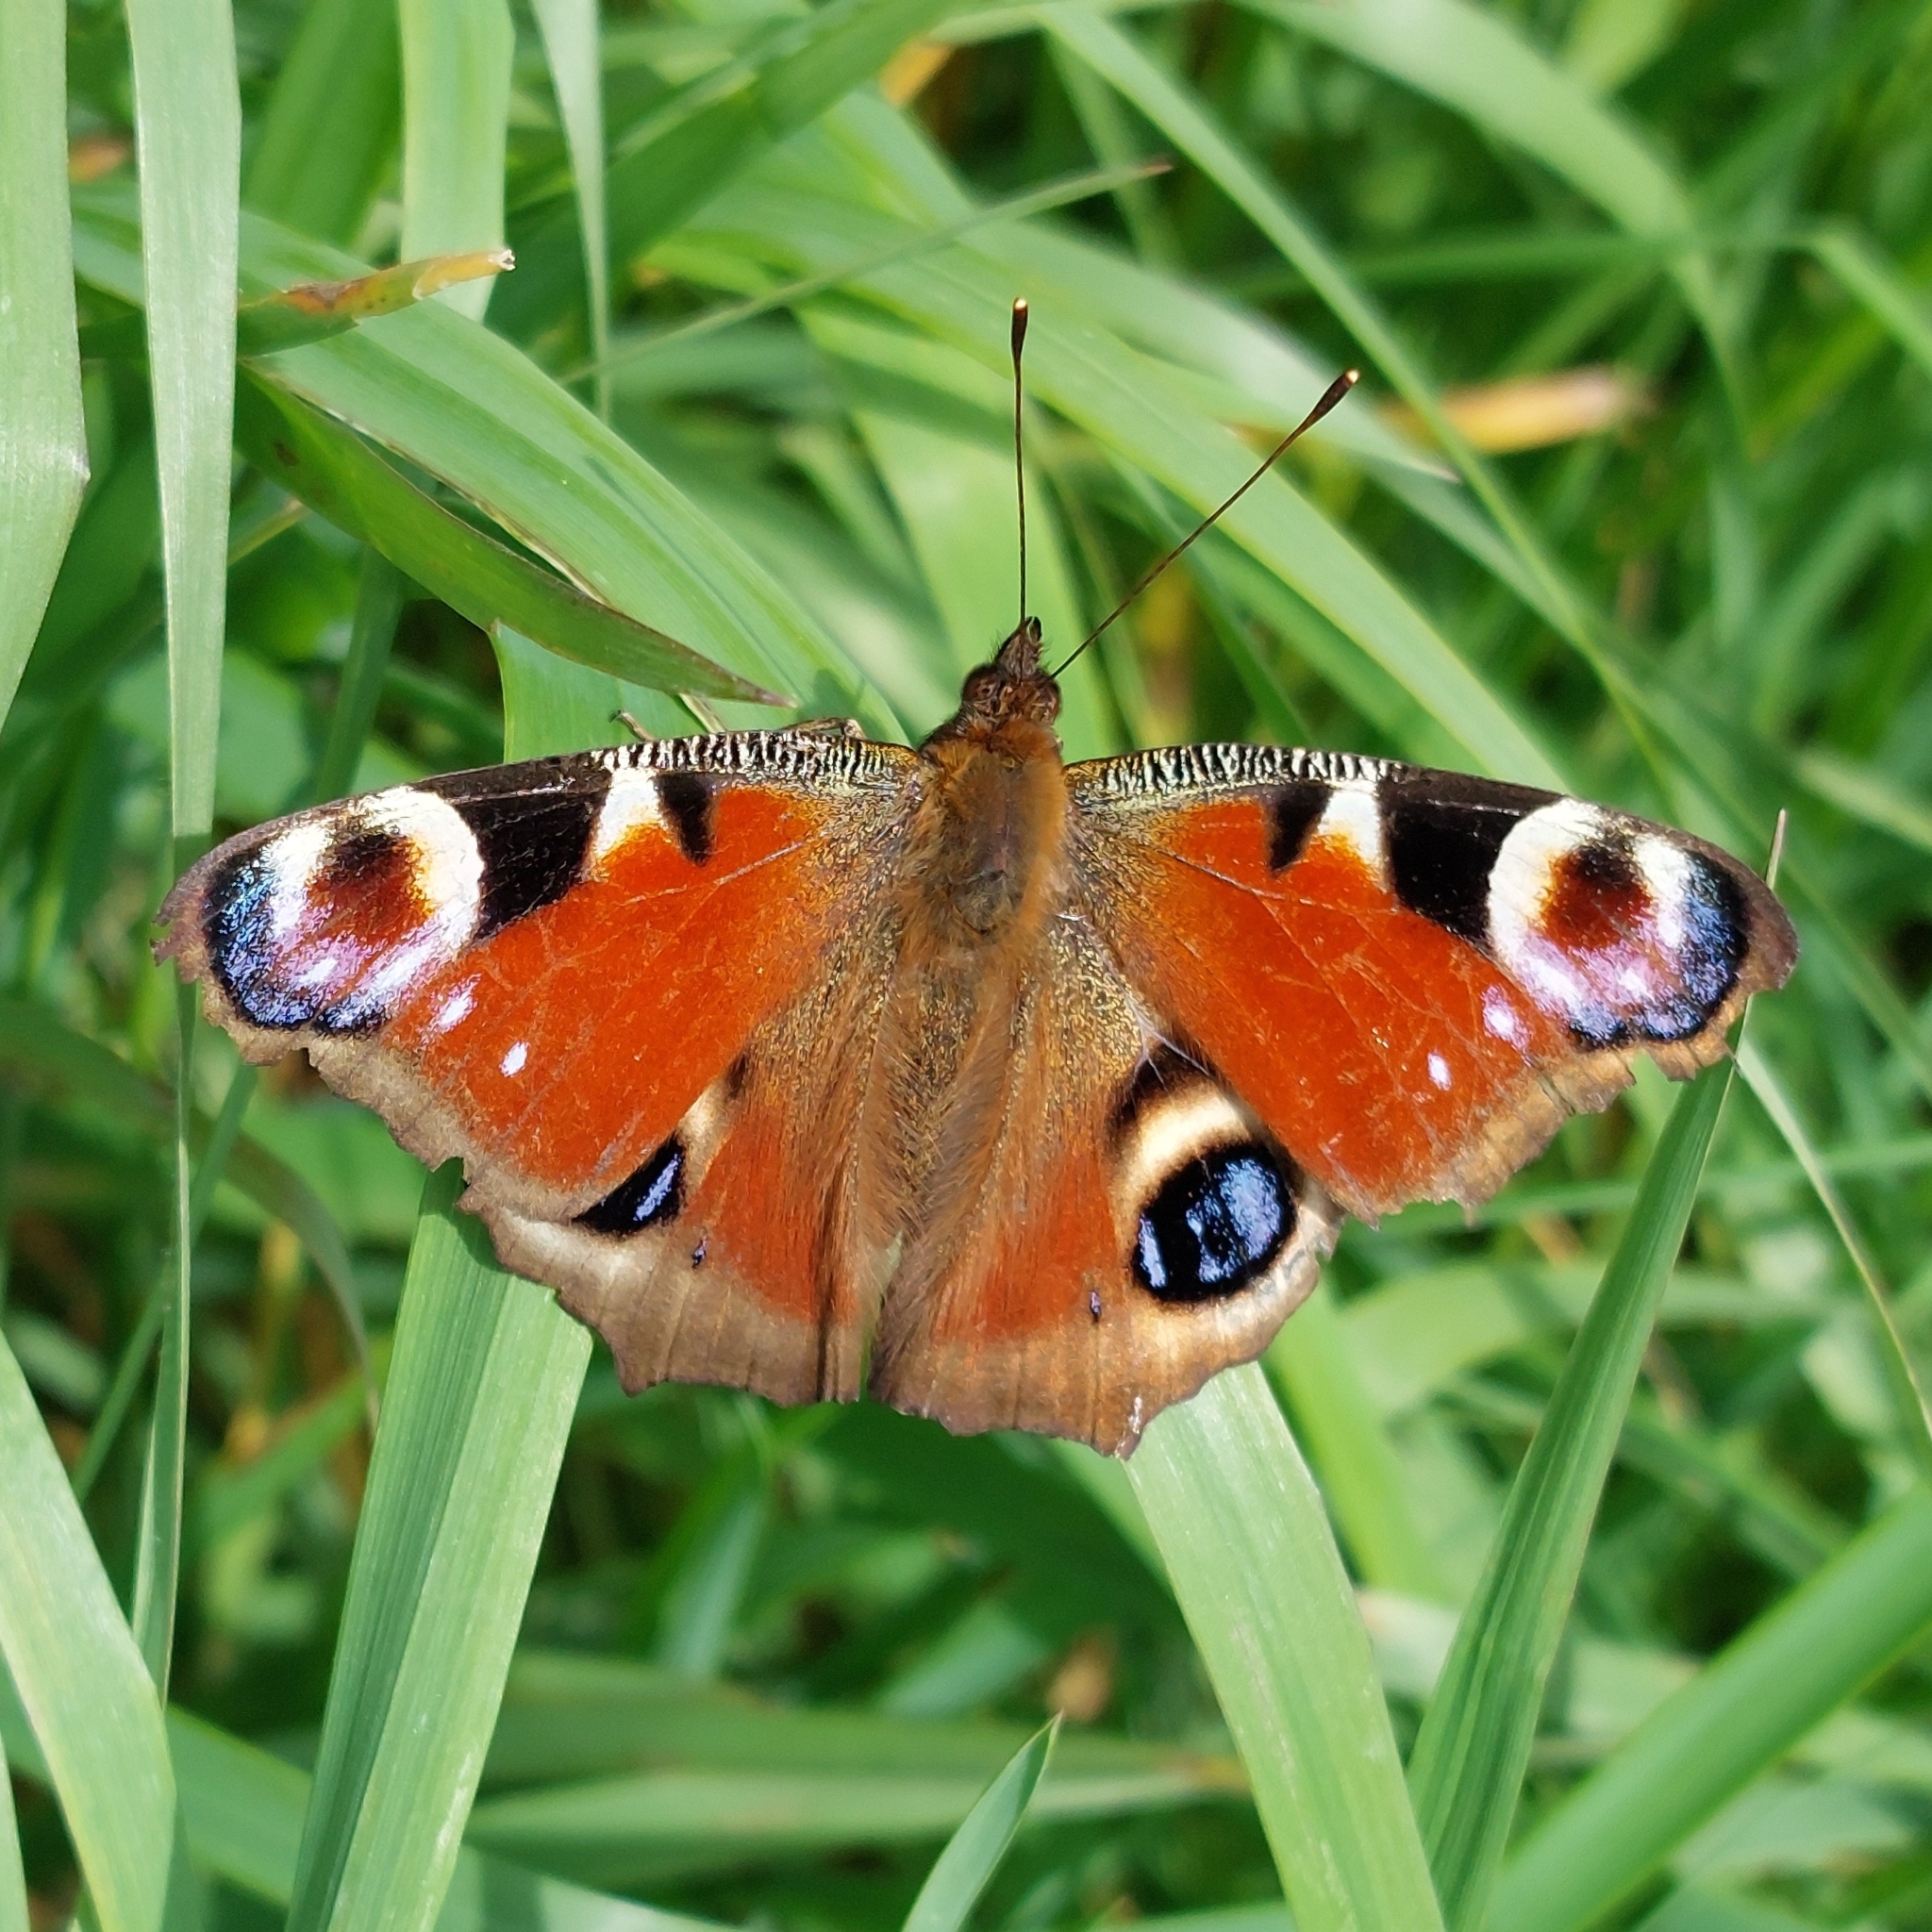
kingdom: Animalia
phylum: Arthropoda
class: Insecta
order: Lepidoptera
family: Nymphalidae
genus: Aglais
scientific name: Aglais io
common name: Peacock
